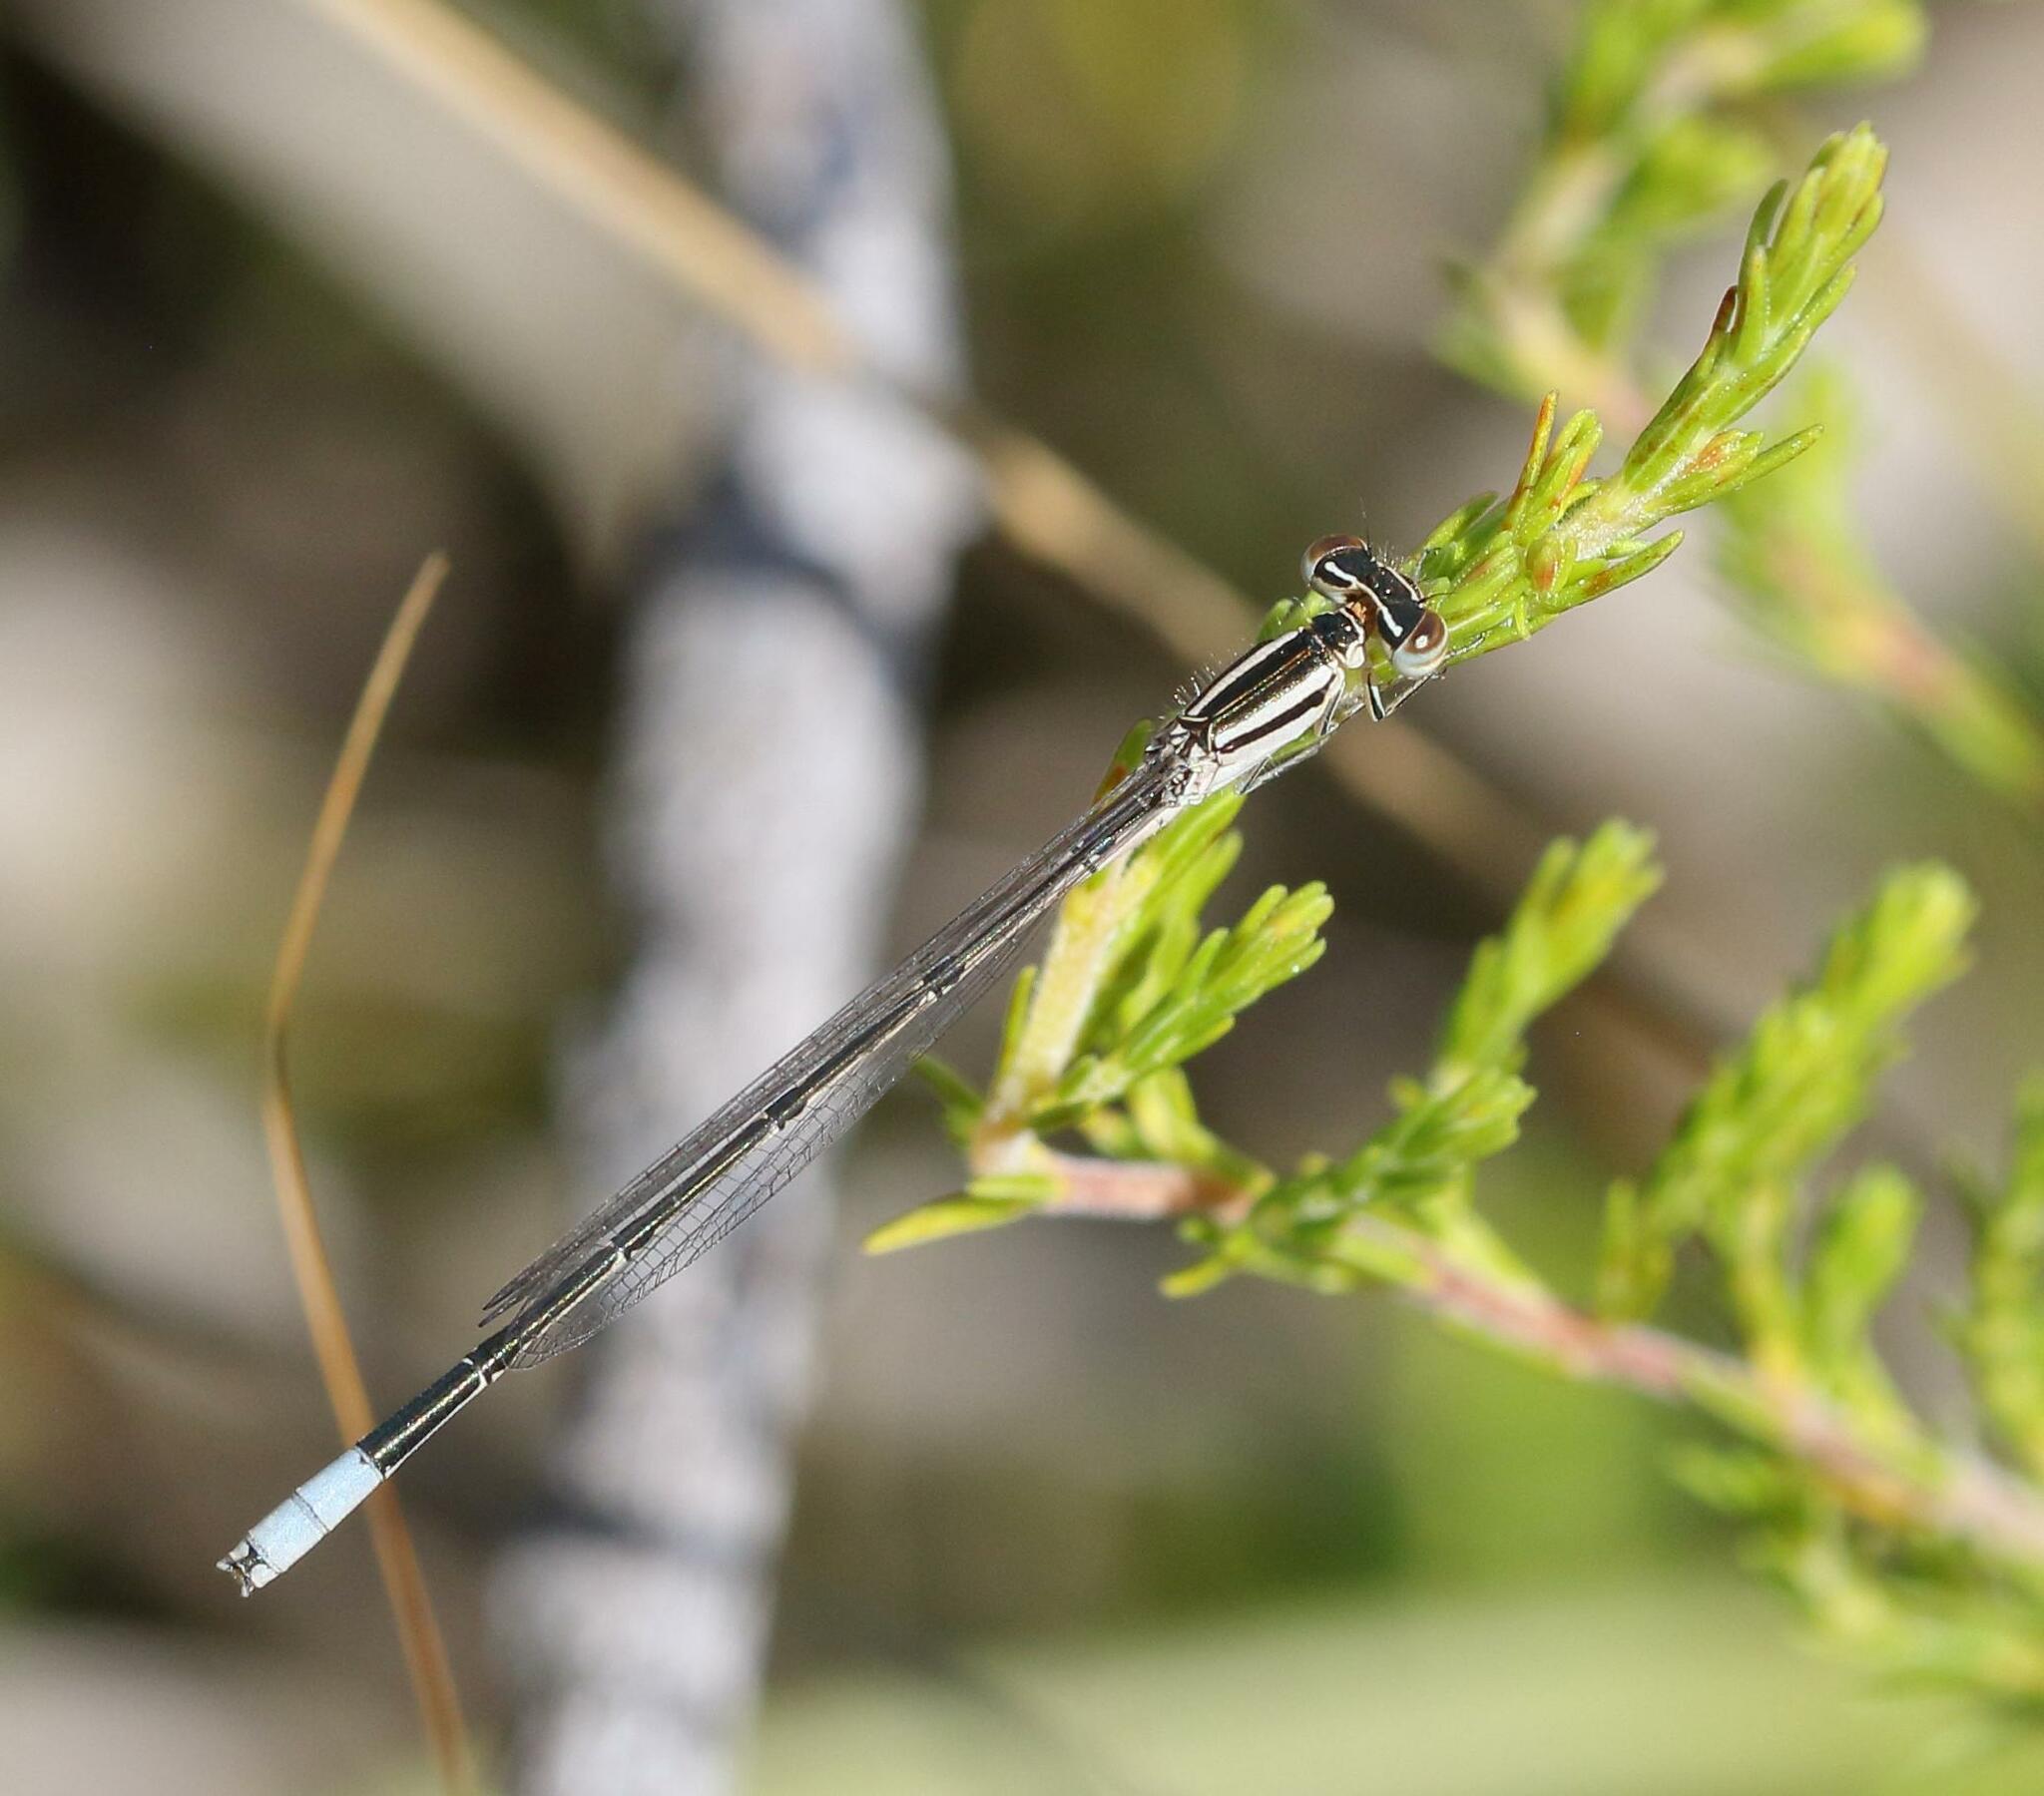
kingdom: Animalia
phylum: Arthropoda
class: Insecta
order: Odonata
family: Coenagrionidae
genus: Africallagma
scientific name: Africallagma glaucum
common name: Swamp bluet
